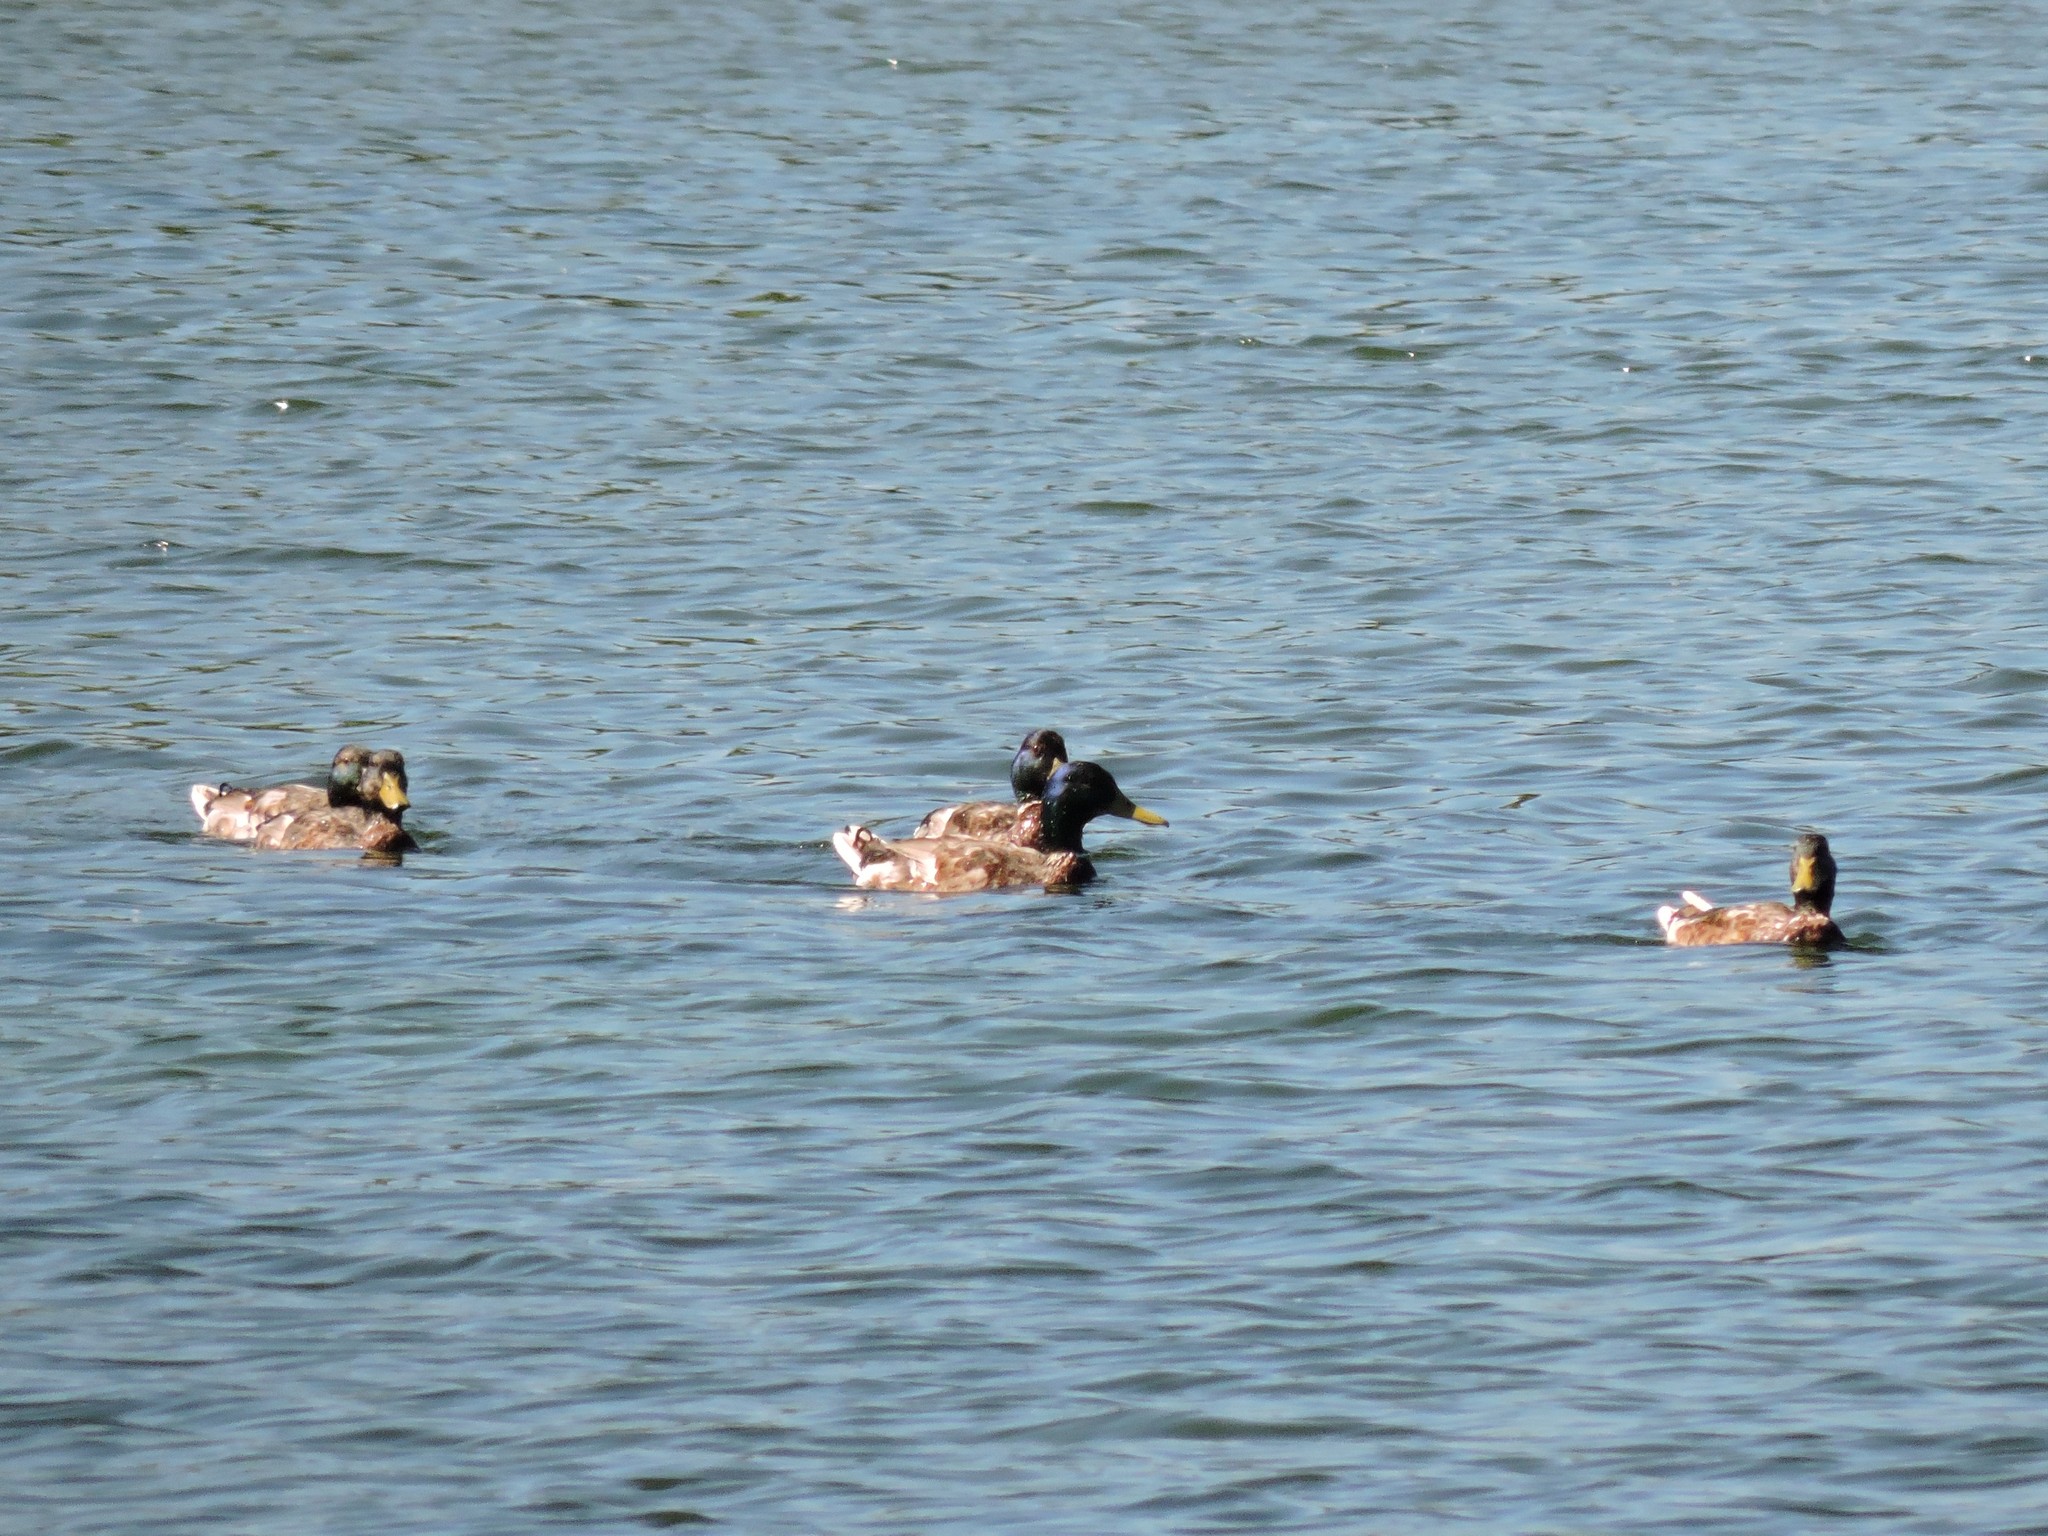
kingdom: Animalia
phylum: Chordata
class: Aves
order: Anseriformes
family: Anatidae
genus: Anas
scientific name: Anas platyrhynchos
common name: Mallard
